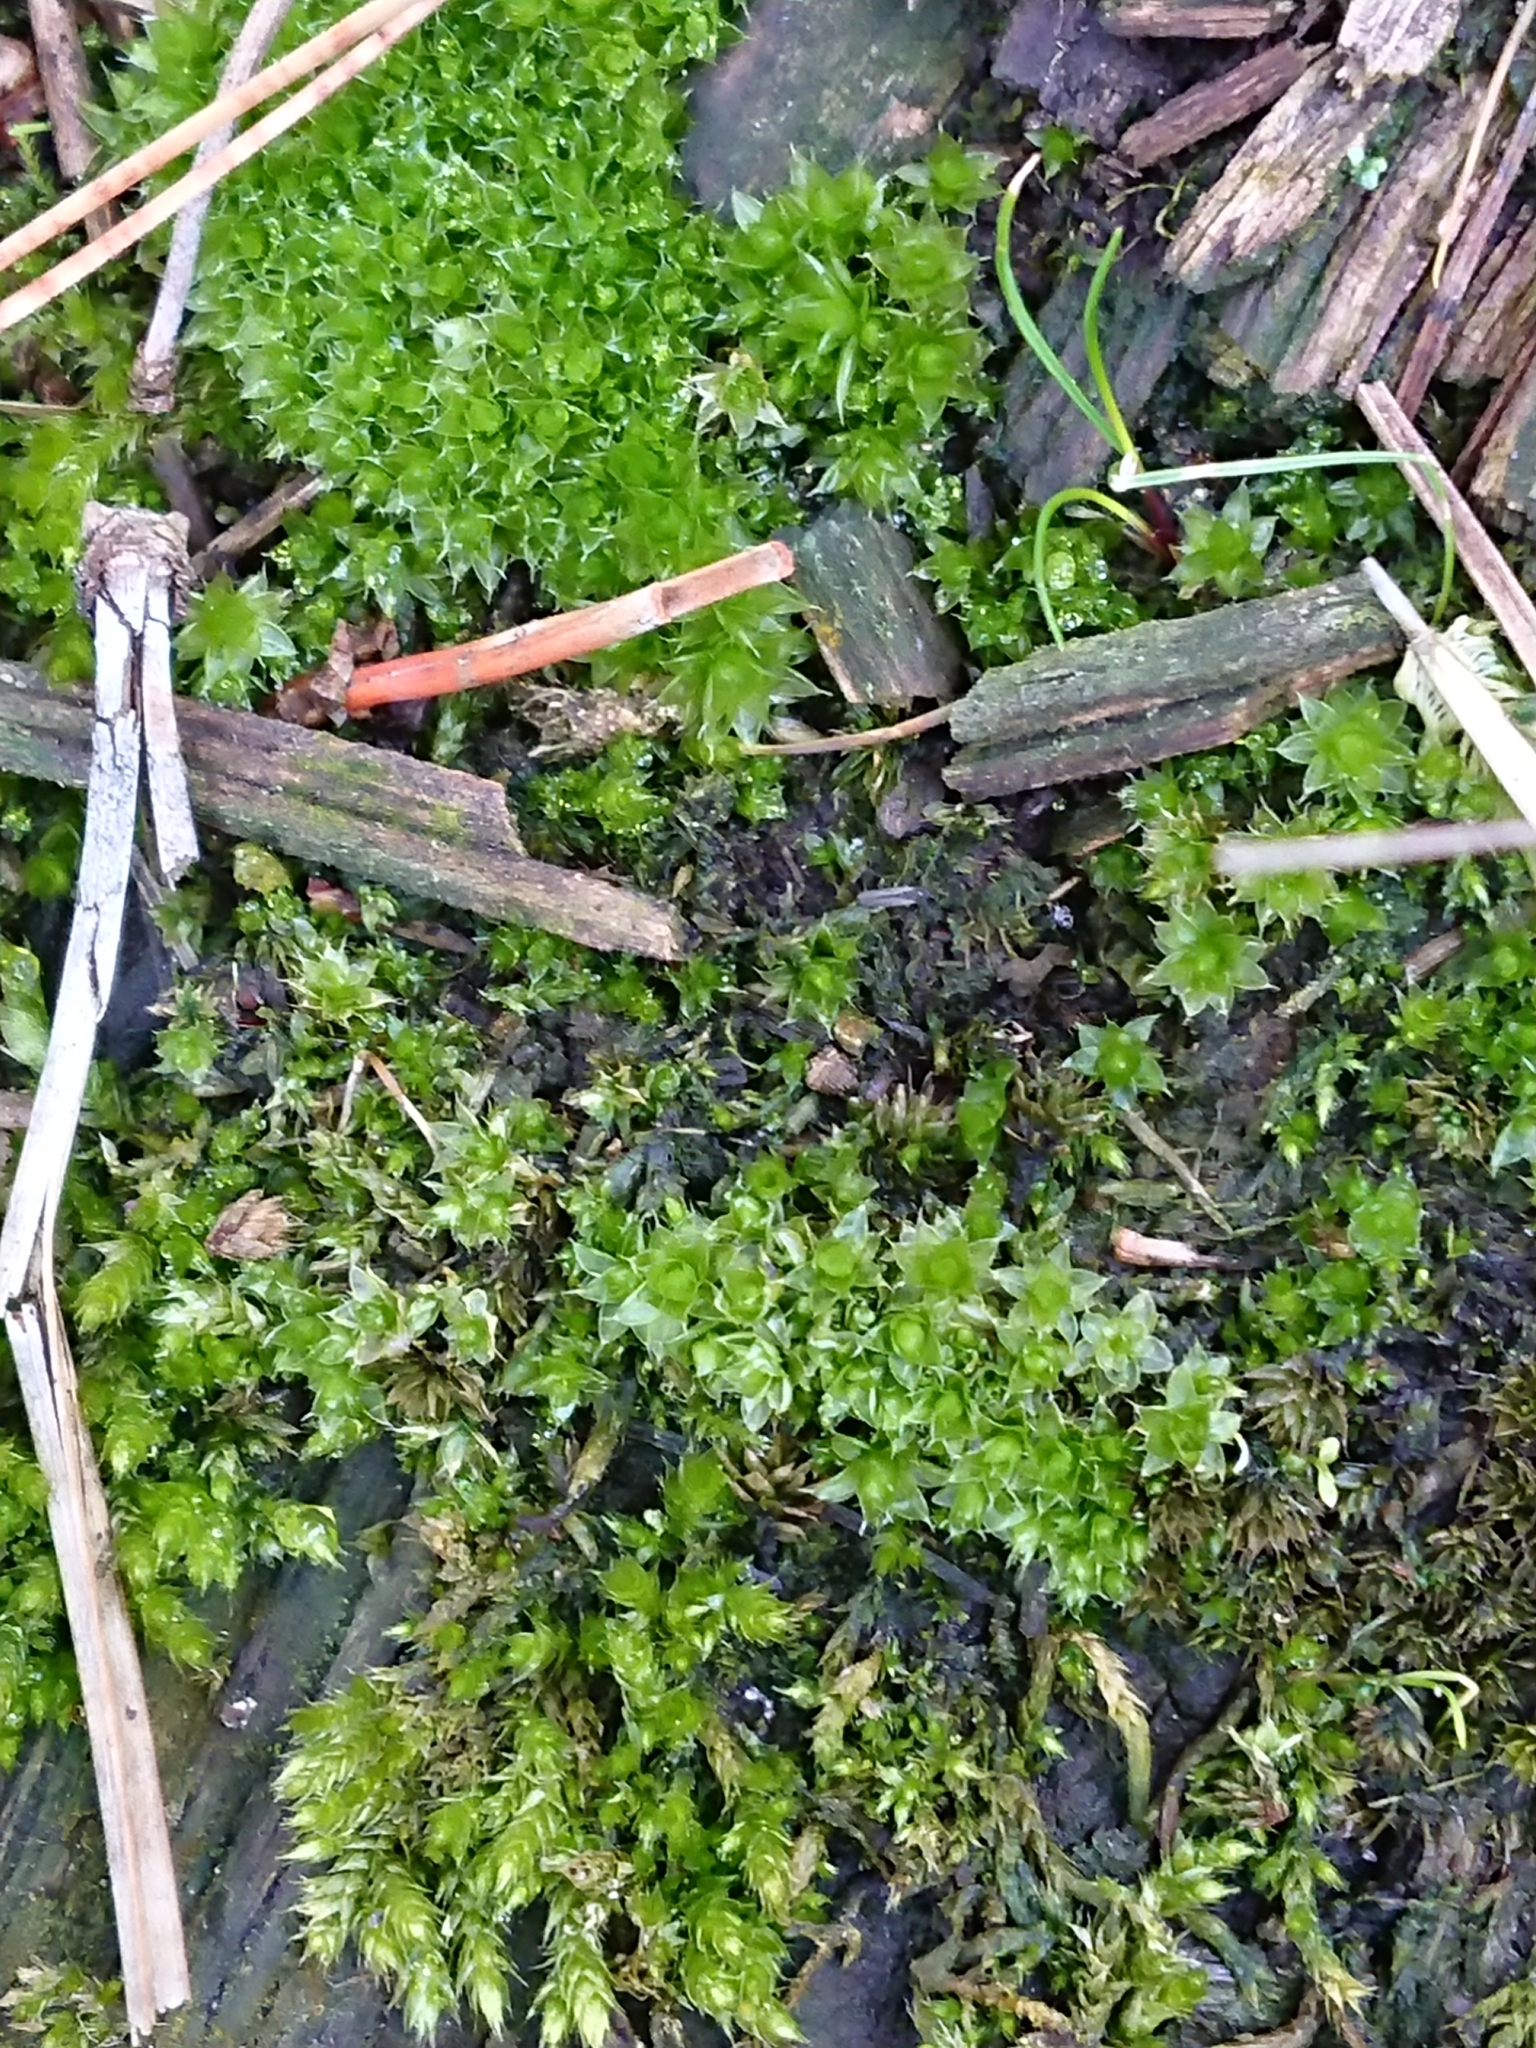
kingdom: Plantae
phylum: Bryophyta
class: Bryopsida
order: Bryales
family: Bryaceae
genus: Rosulabryum
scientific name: Rosulabryum subtomentosum
